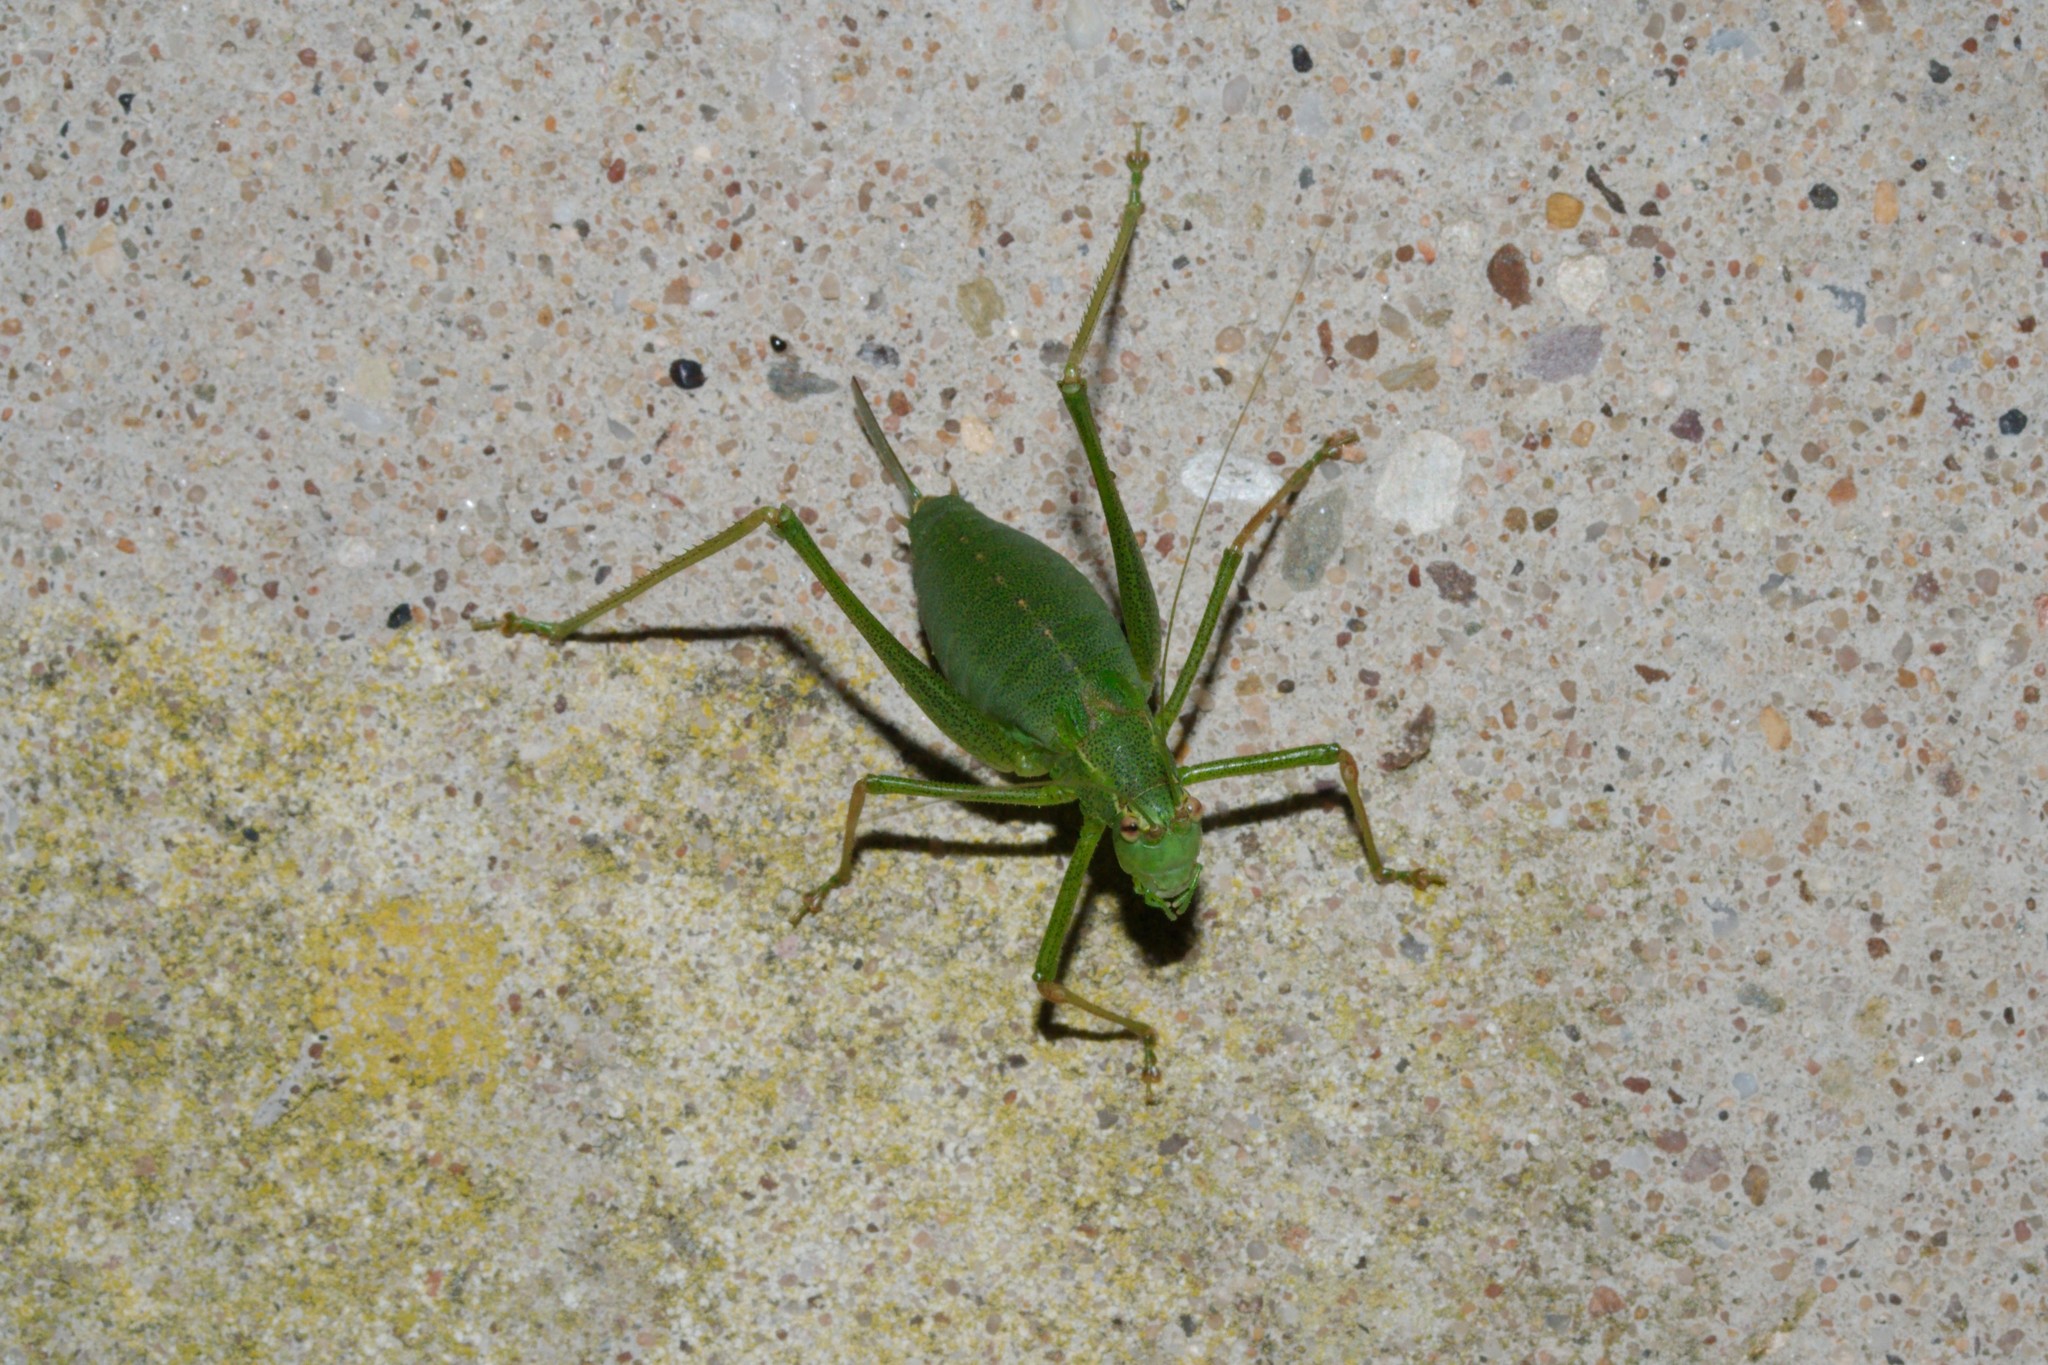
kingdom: Animalia
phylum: Arthropoda
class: Insecta
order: Orthoptera
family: Tettigoniidae
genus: Leptophyes
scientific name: Leptophyes punctatissima
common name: Speckled bush-cricket
